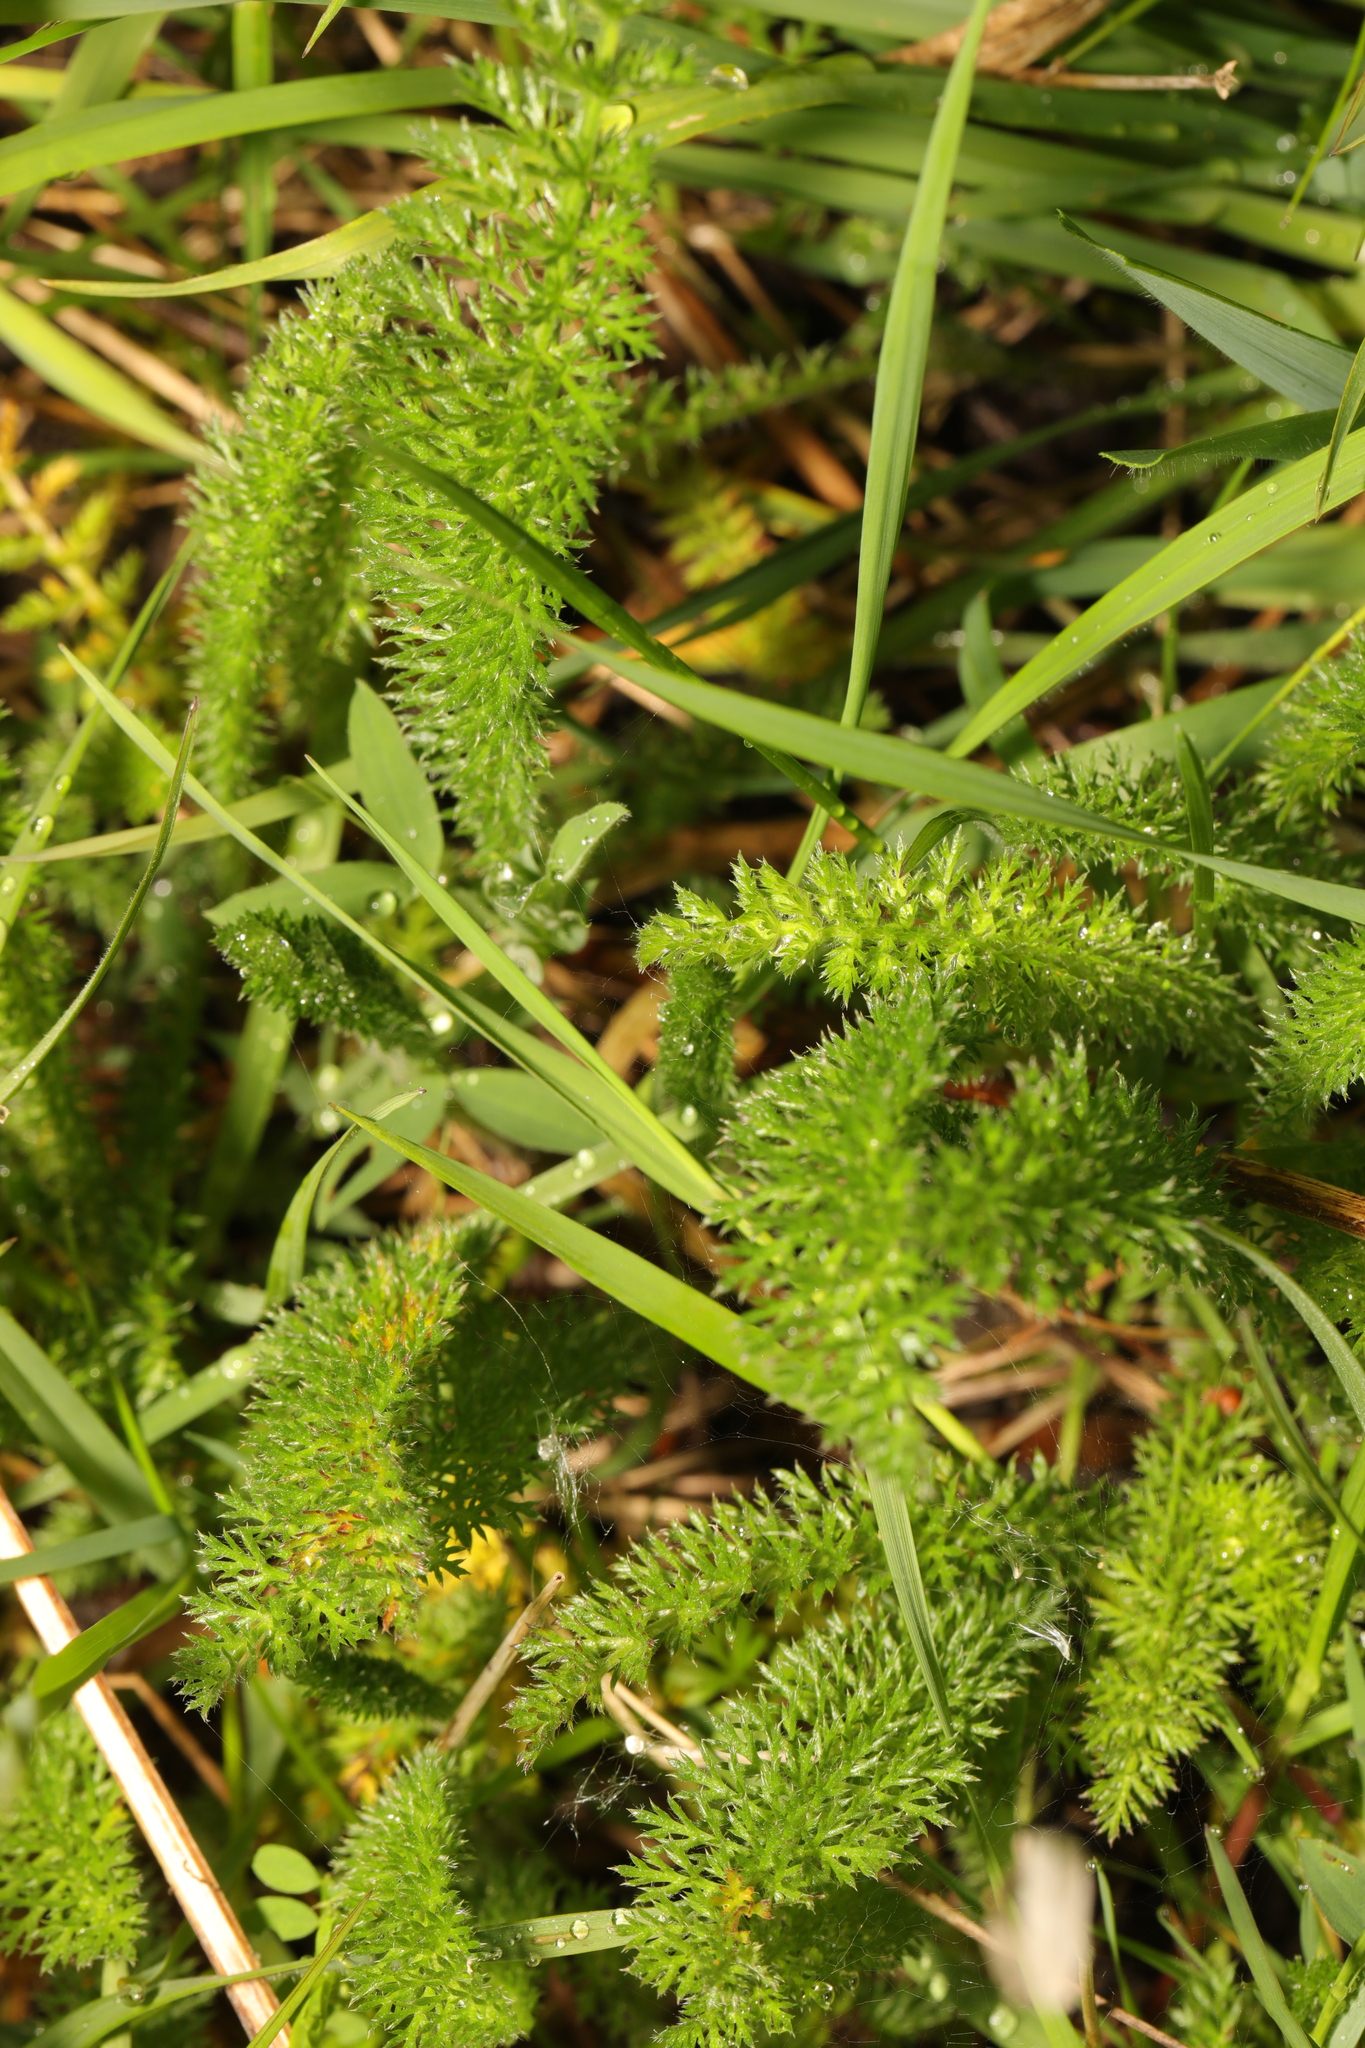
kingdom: Plantae
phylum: Tracheophyta
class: Magnoliopsida
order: Asterales
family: Asteraceae
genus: Achillea
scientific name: Achillea millefolium
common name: Yarrow
